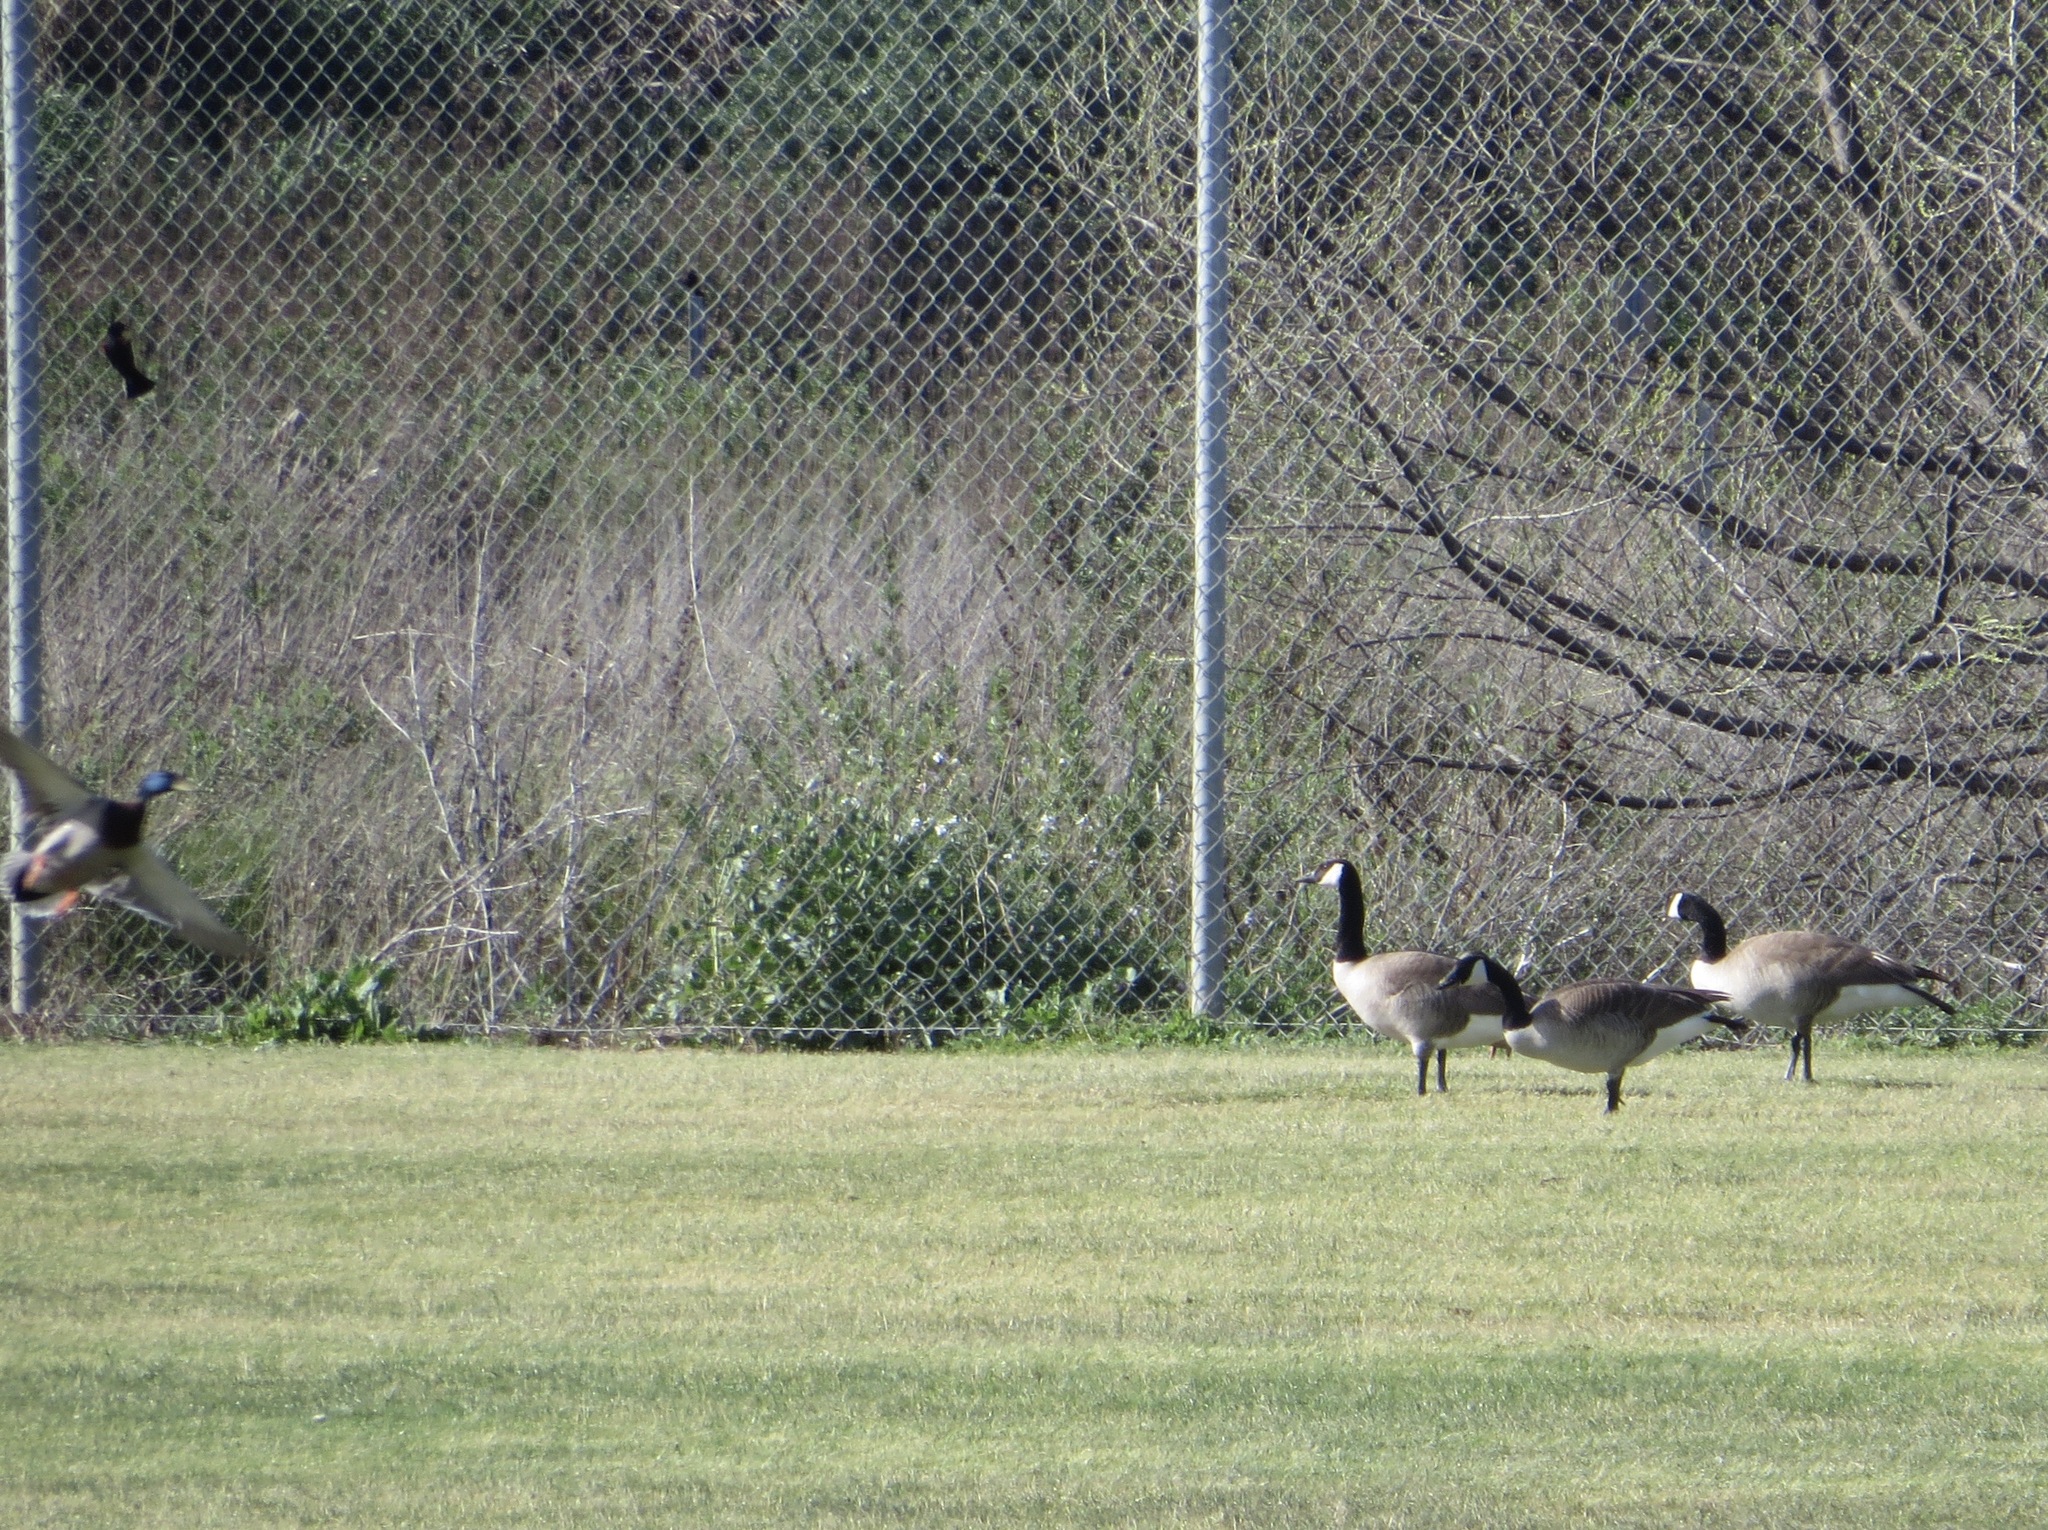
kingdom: Animalia
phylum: Chordata
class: Aves
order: Anseriformes
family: Anatidae
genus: Branta
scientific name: Branta canadensis
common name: Canada goose
